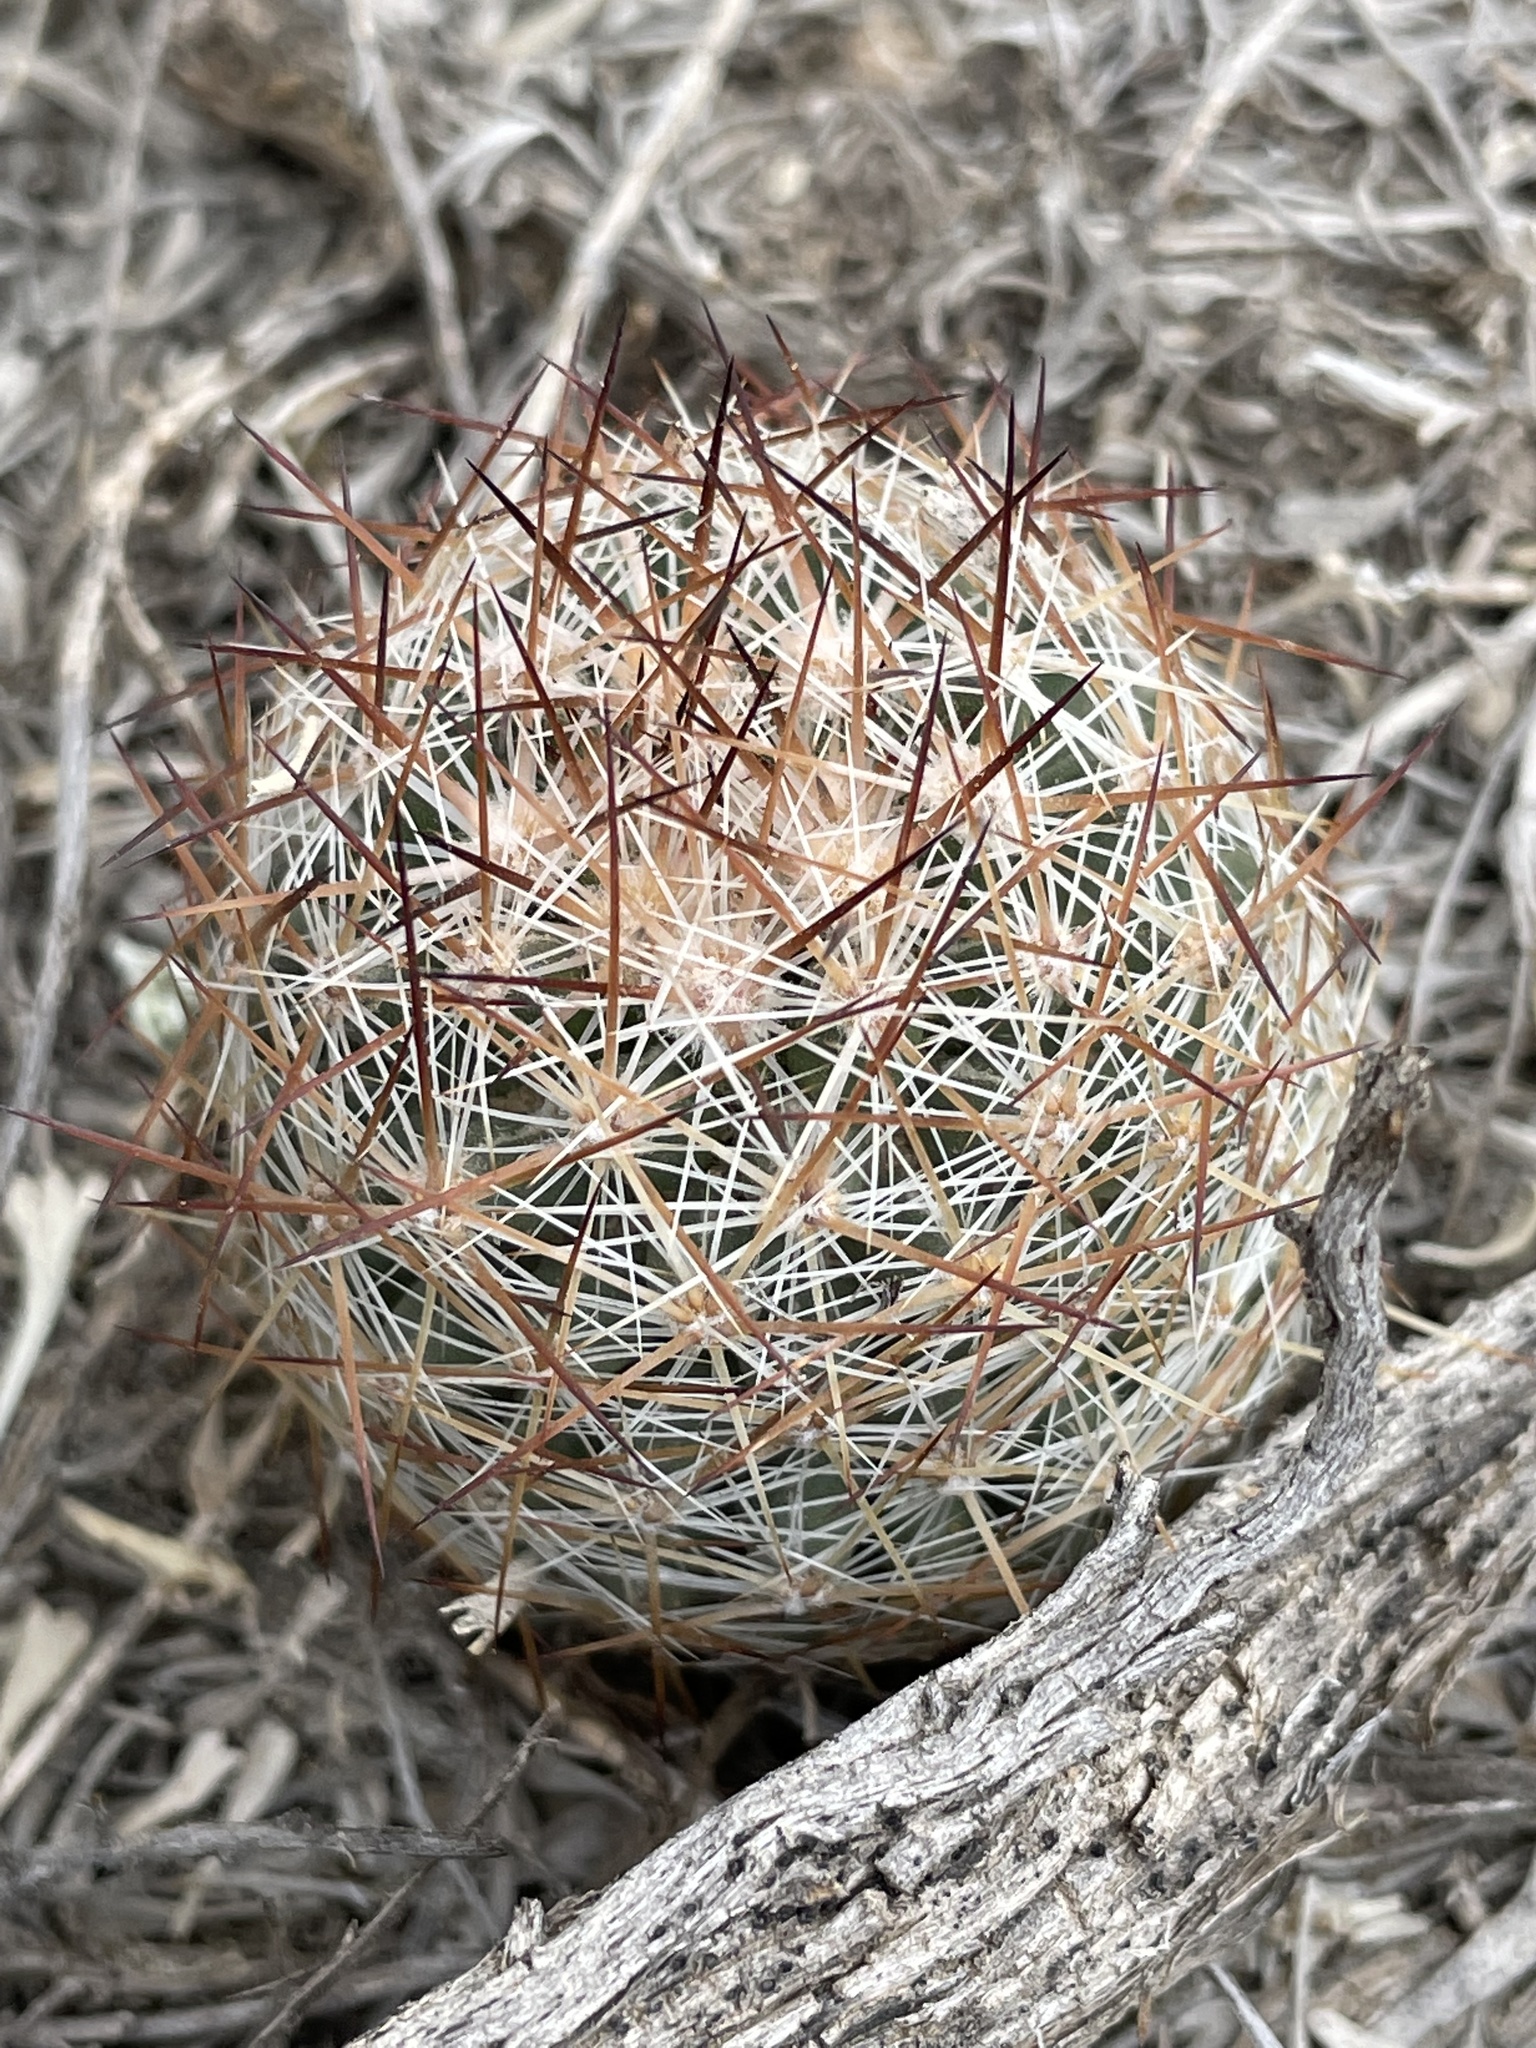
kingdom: Plantae
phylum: Tracheophyta
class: Magnoliopsida
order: Caryophyllales
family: Cactaceae
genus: Pelecyphora
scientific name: Pelecyphora vivipara
